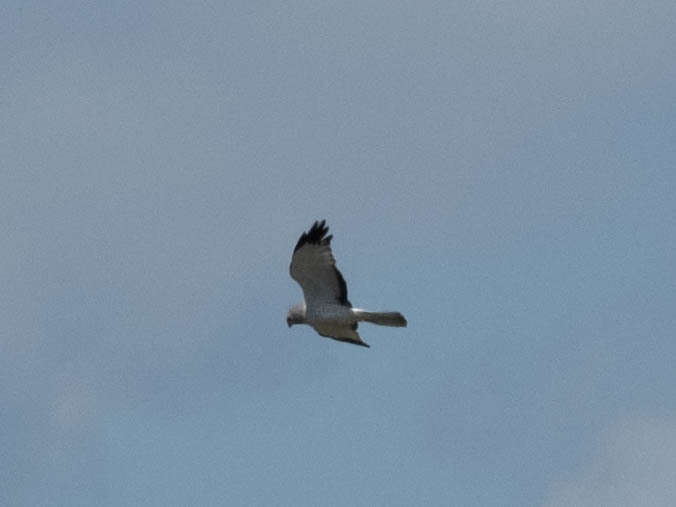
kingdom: Animalia
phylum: Chordata
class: Aves
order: Accipitriformes
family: Accipitridae
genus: Circus
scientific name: Circus cyaneus
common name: Hen harrier
